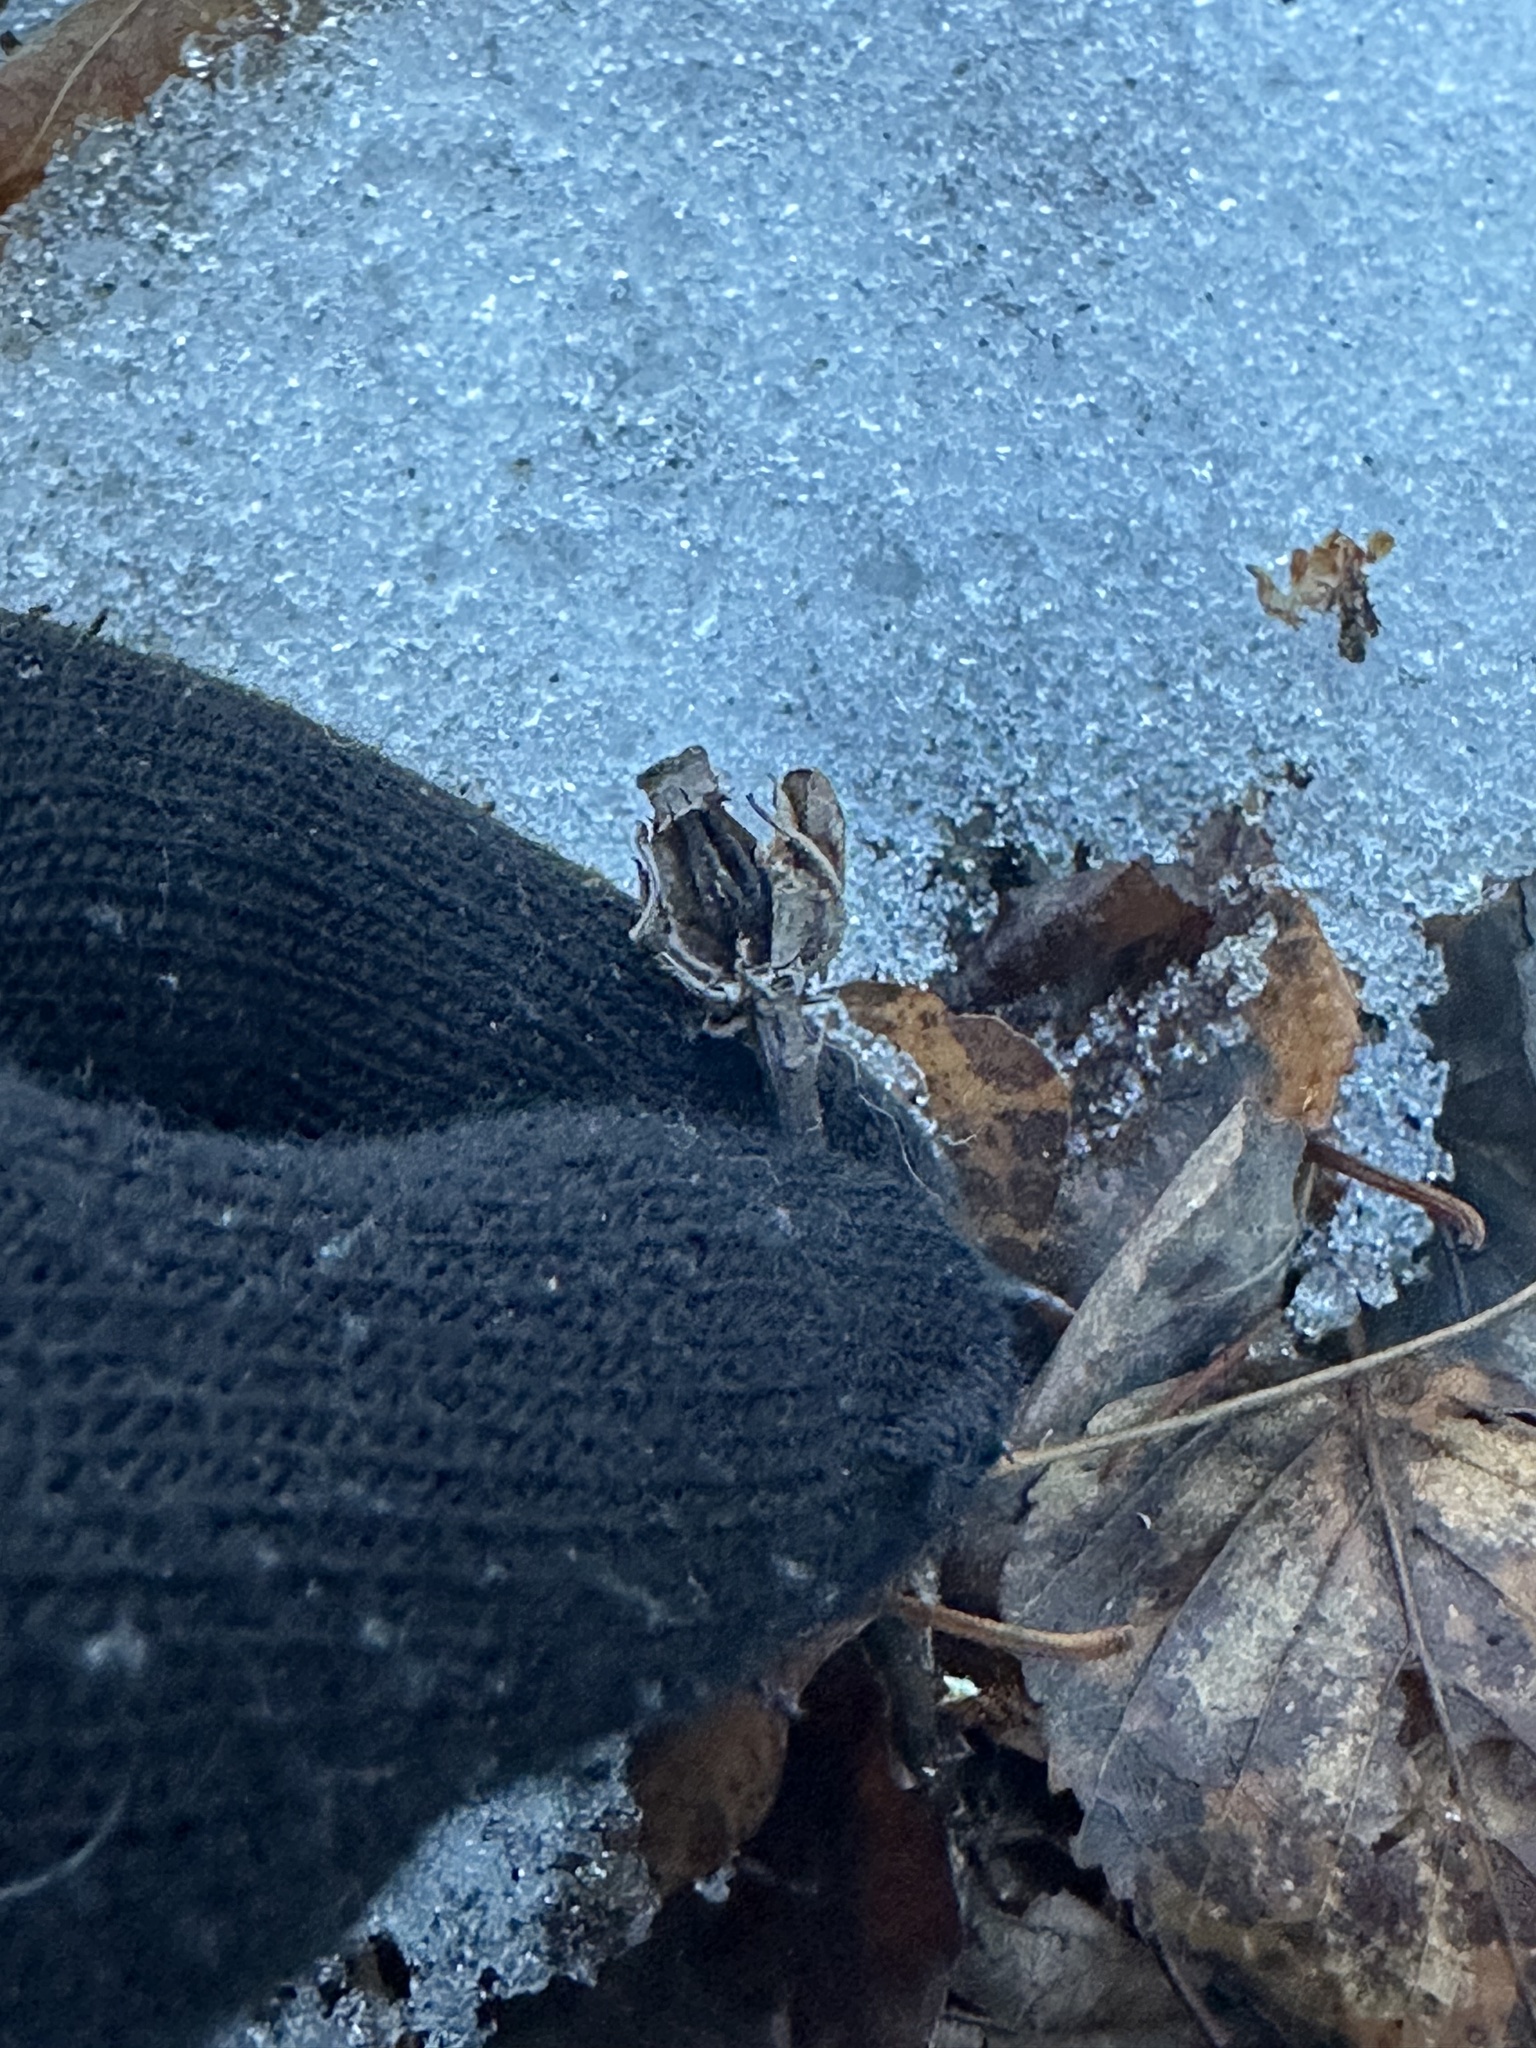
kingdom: Plantae
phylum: Tracheophyta
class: Magnoliopsida
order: Ericales
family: Ericaceae
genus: Monotropa
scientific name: Monotropa uniflora
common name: Convulsion root
